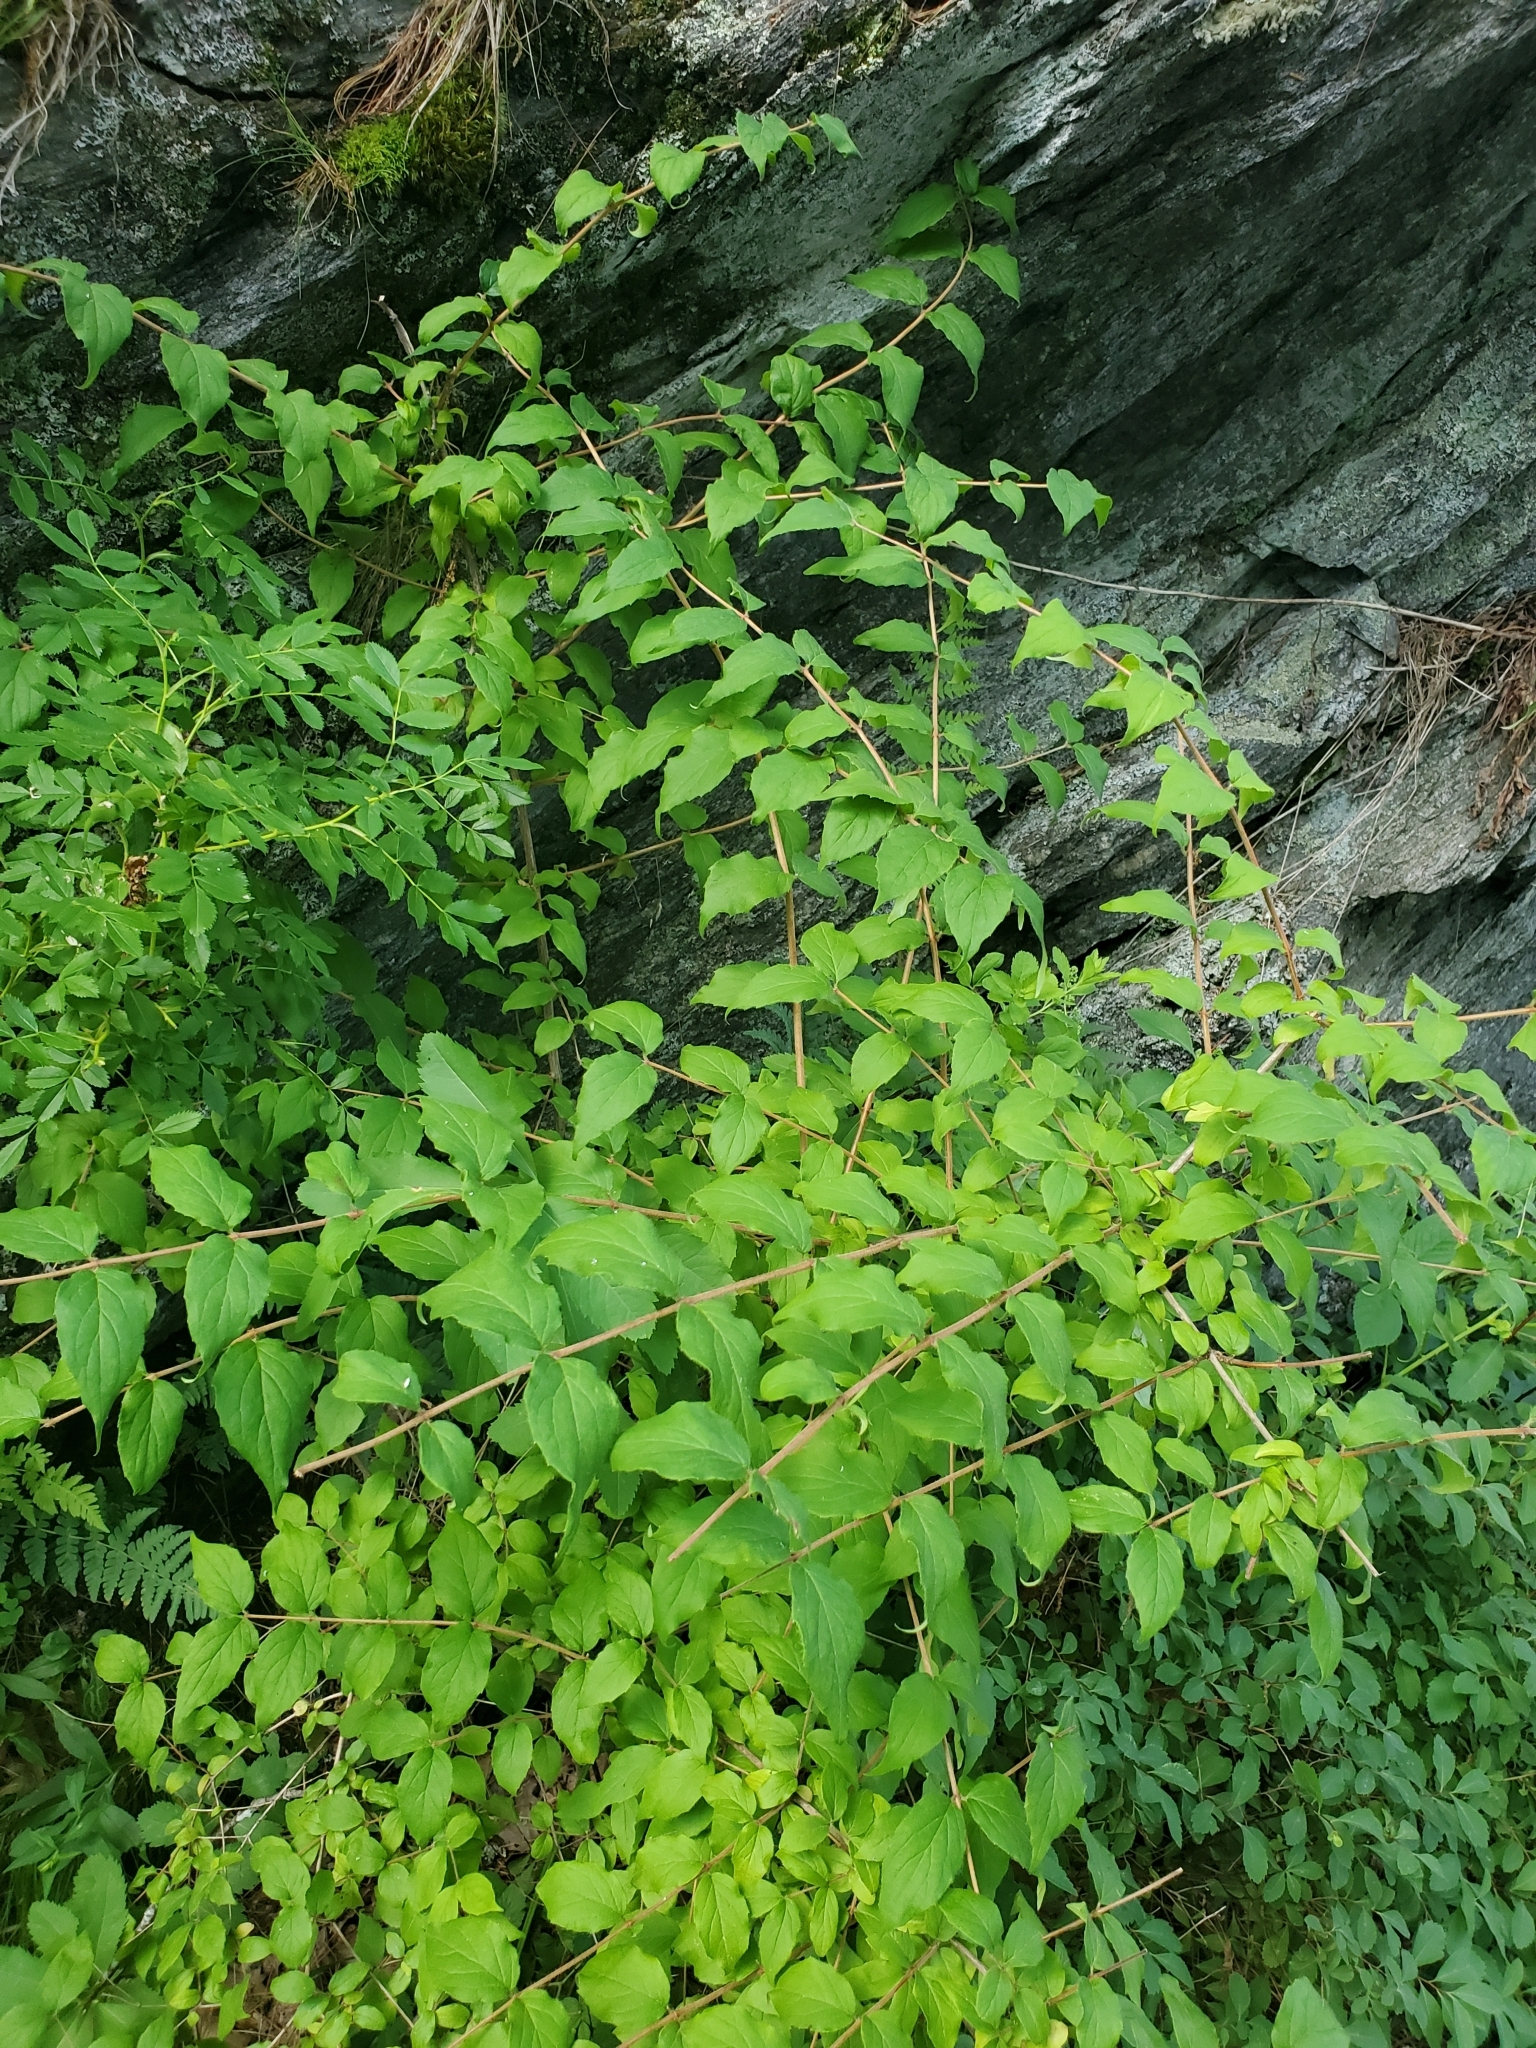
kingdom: Plantae
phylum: Tracheophyta
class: Magnoliopsida
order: Dipsacales
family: Caprifoliaceae
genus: Kolkwitzia
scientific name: Kolkwitzia amabilis
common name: Beautybush
